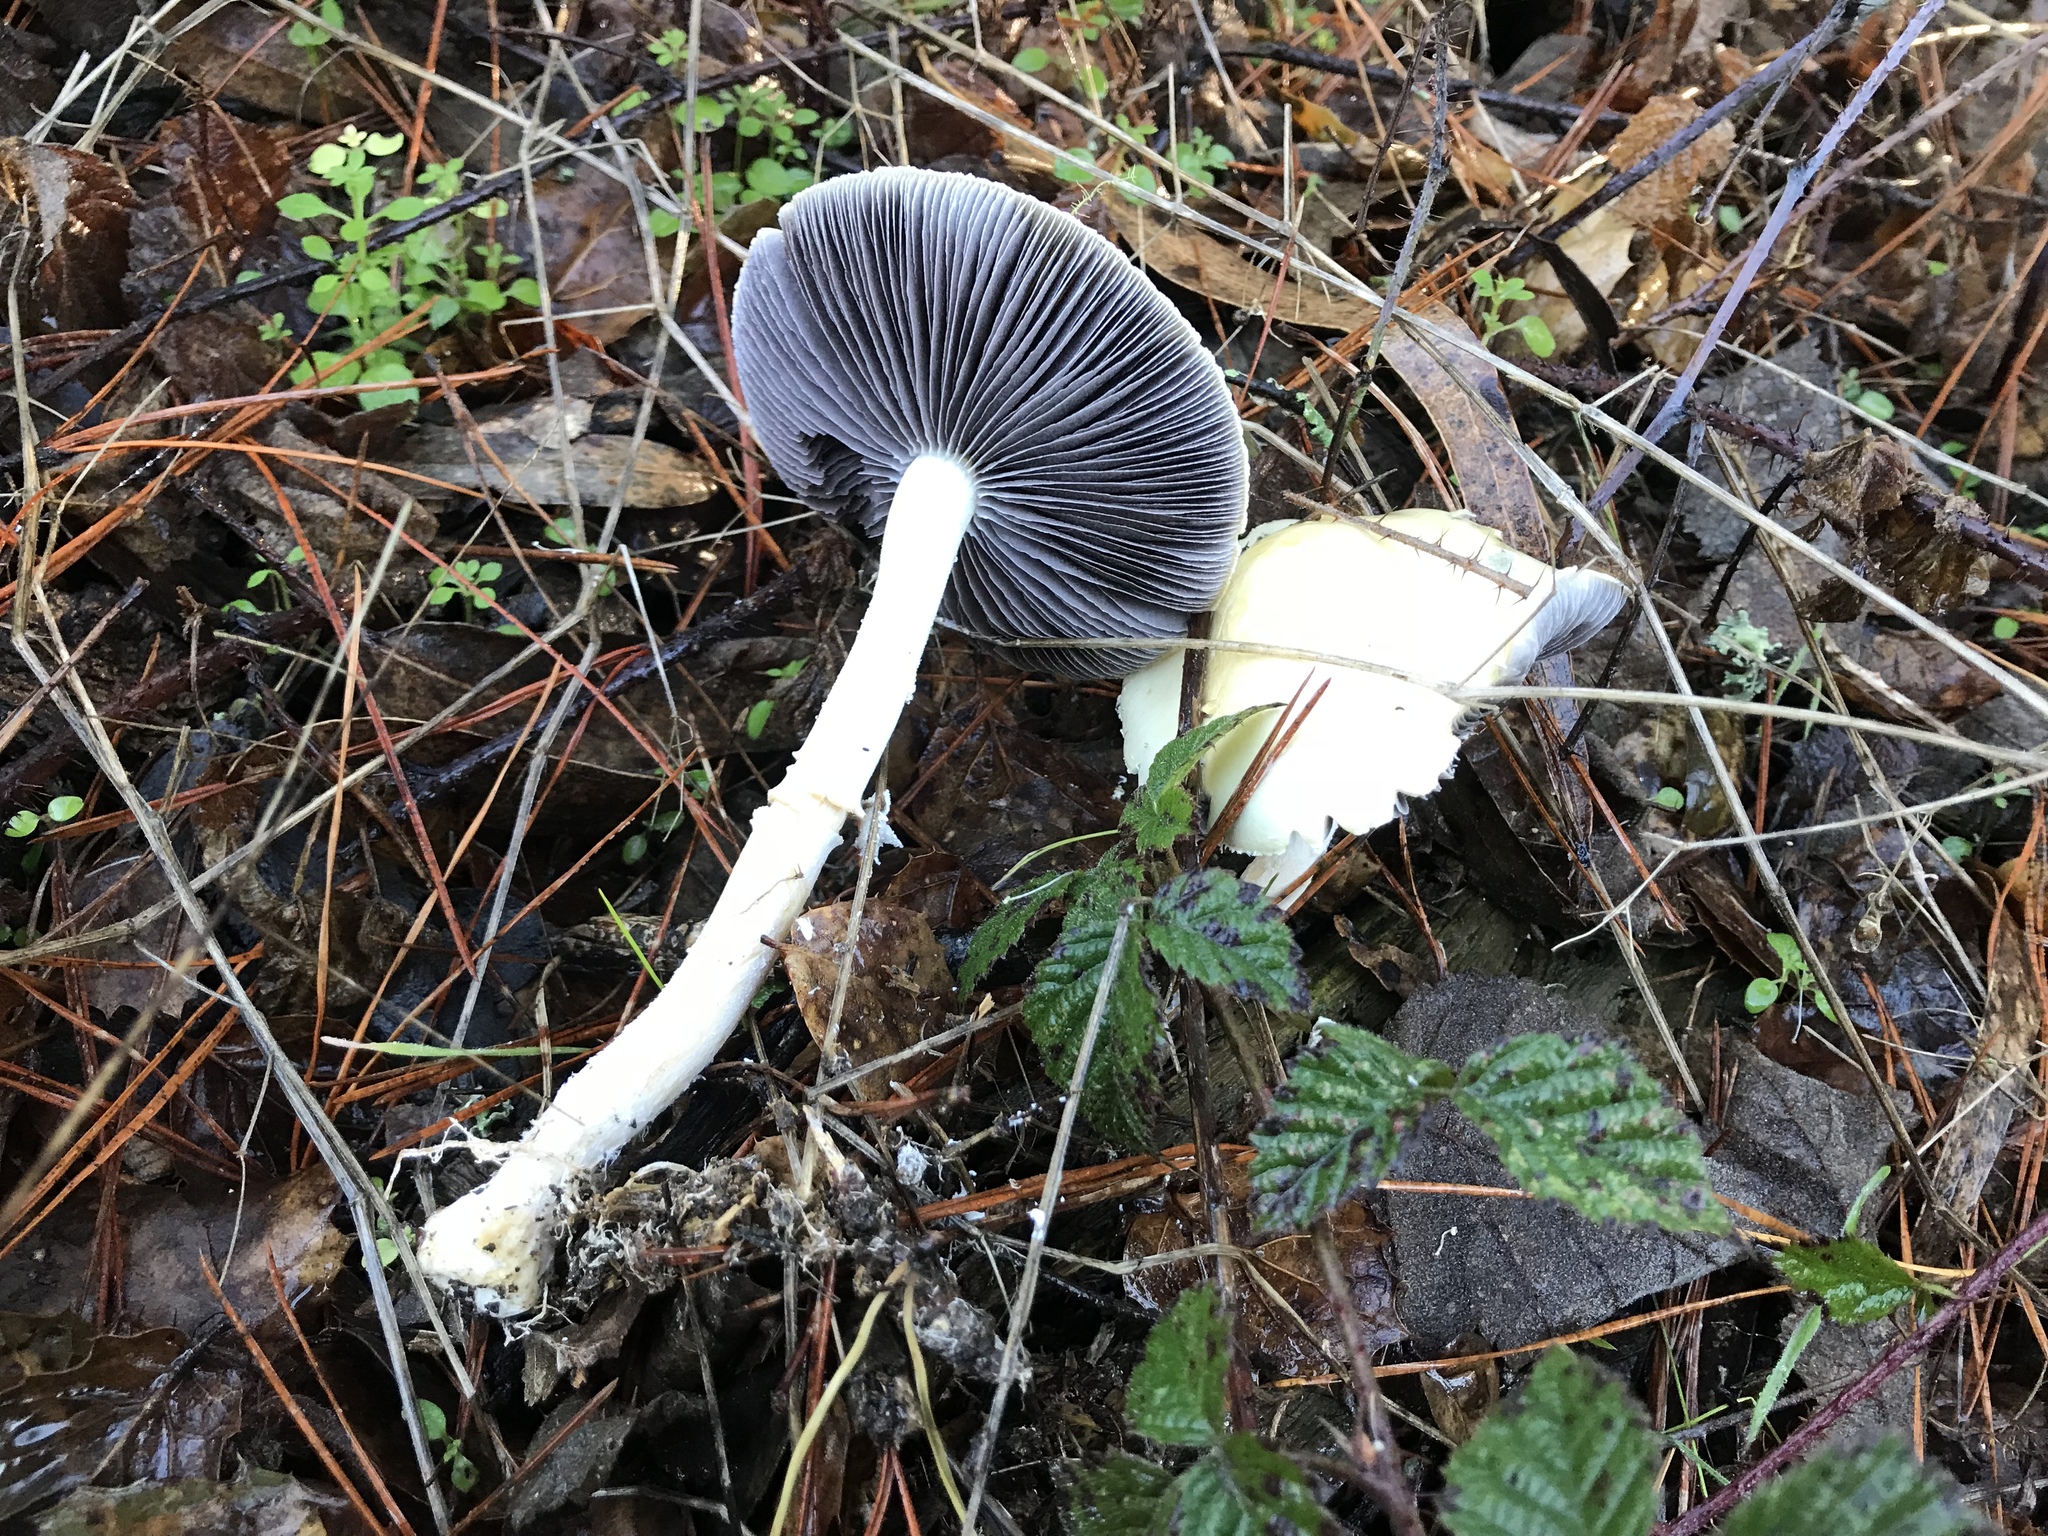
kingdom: Fungi
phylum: Basidiomycota
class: Agaricomycetes
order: Agaricales
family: Strophariaceae
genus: Stropharia
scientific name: Stropharia ambigua
